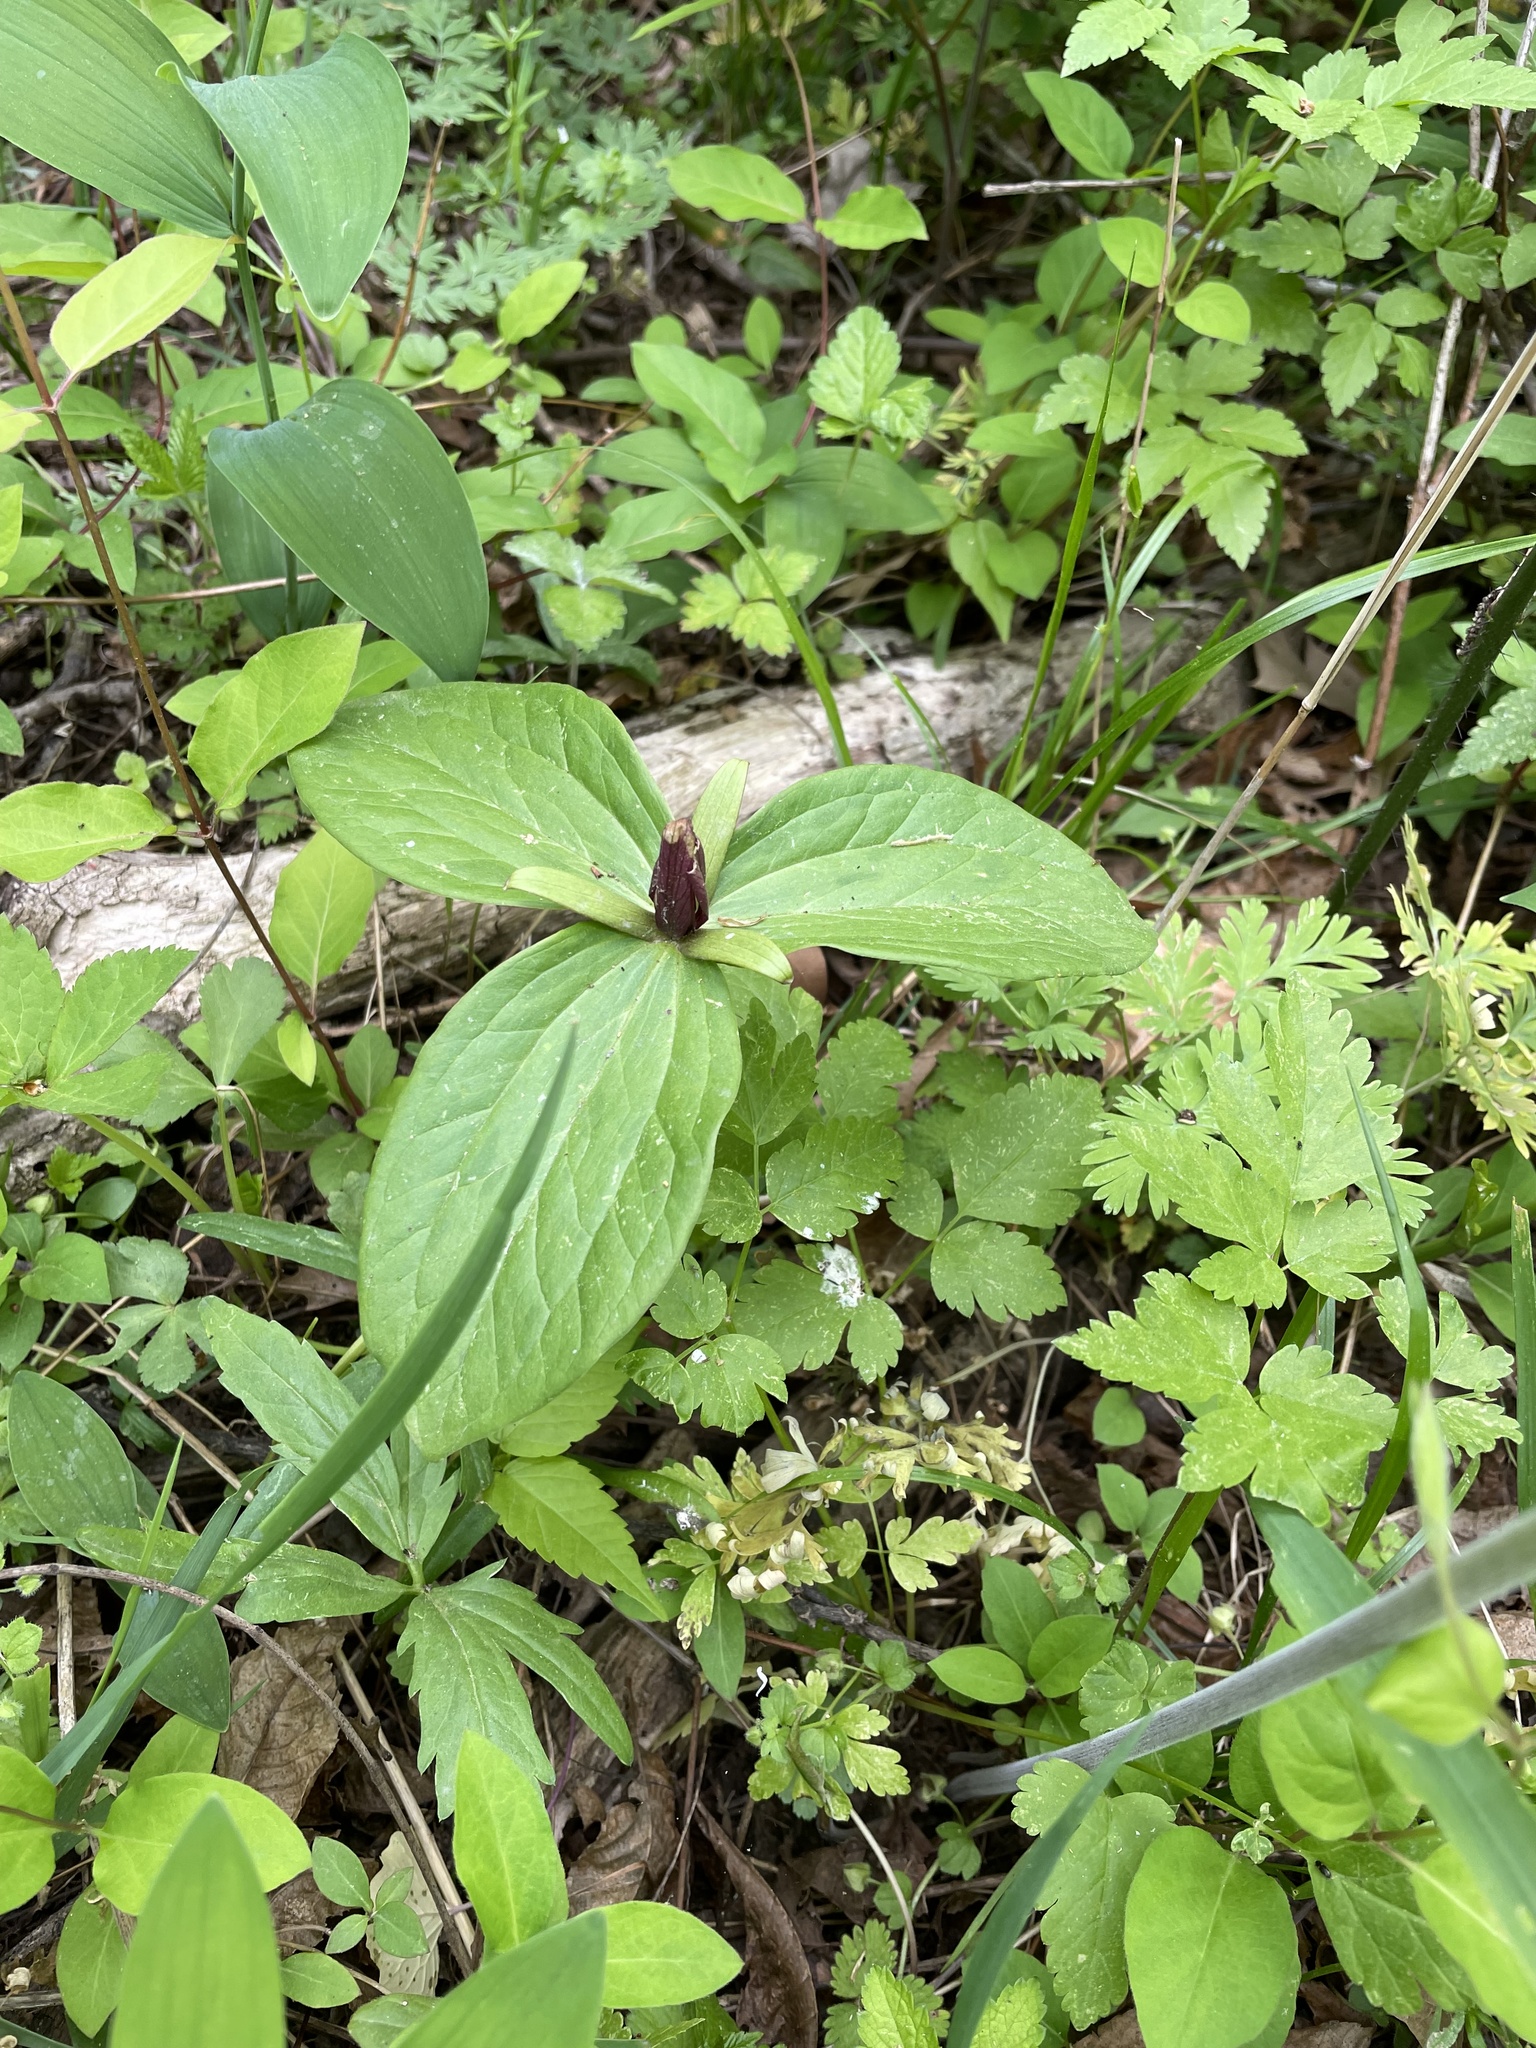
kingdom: Plantae
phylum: Tracheophyta
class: Liliopsida
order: Liliales
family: Melanthiaceae
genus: Trillium
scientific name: Trillium sessile
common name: Sessile trillium
